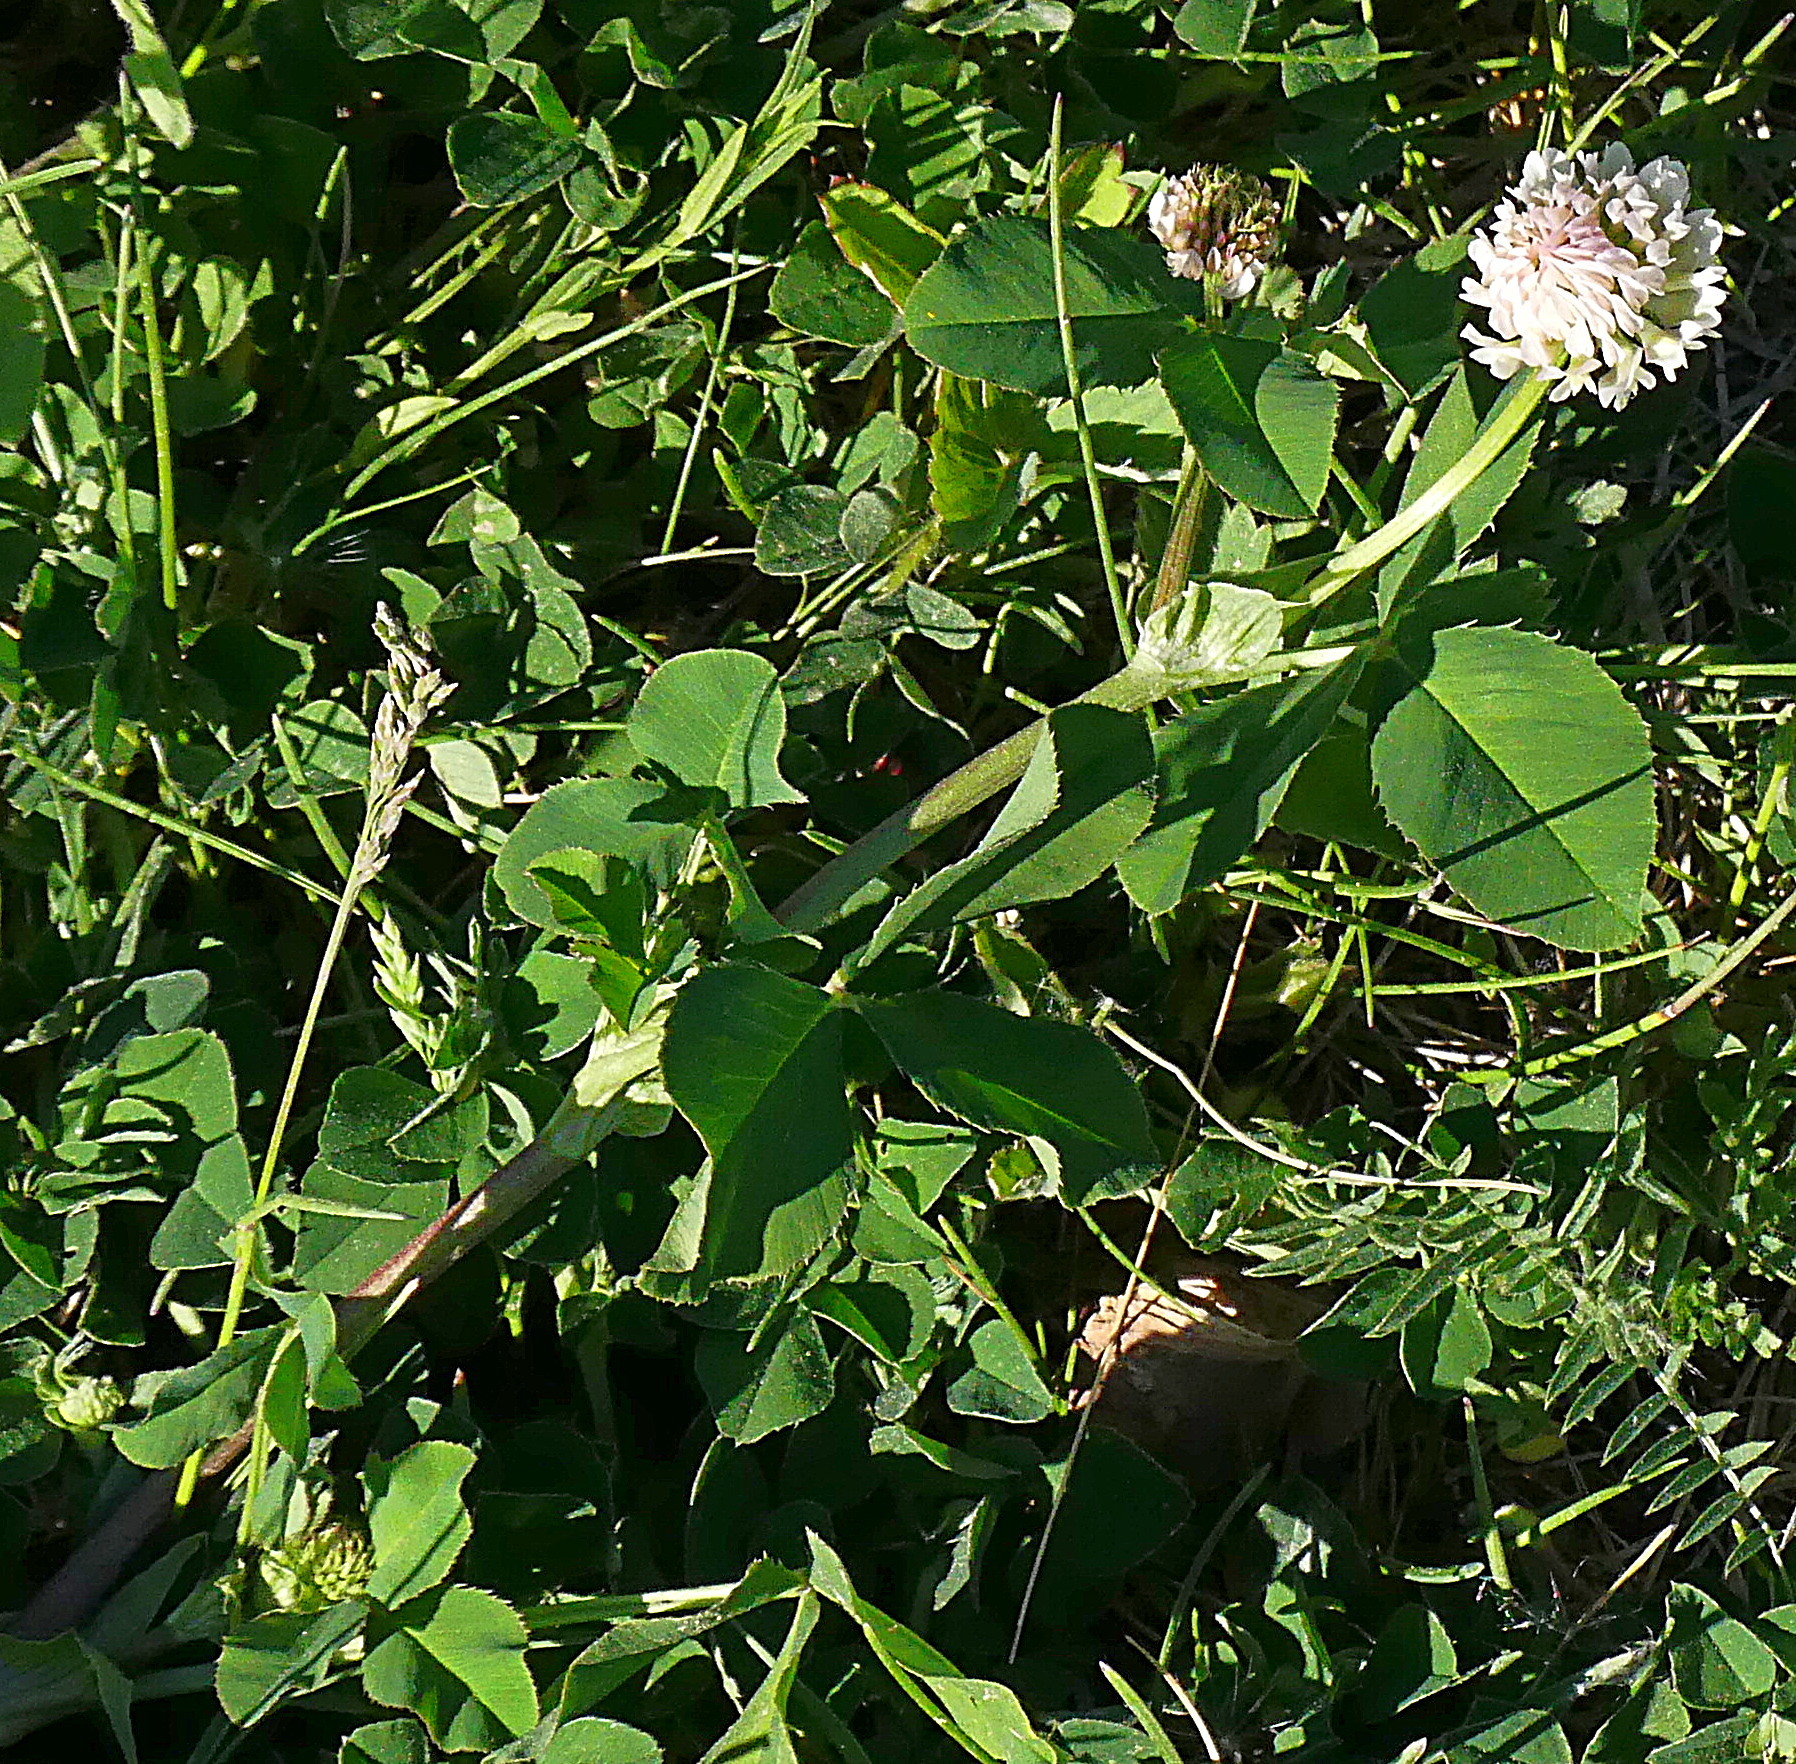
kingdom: Plantae
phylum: Tracheophyta
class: Magnoliopsida
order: Fabales
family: Fabaceae
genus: Trifolium
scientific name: Trifolium hybridum
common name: Alsike clover
